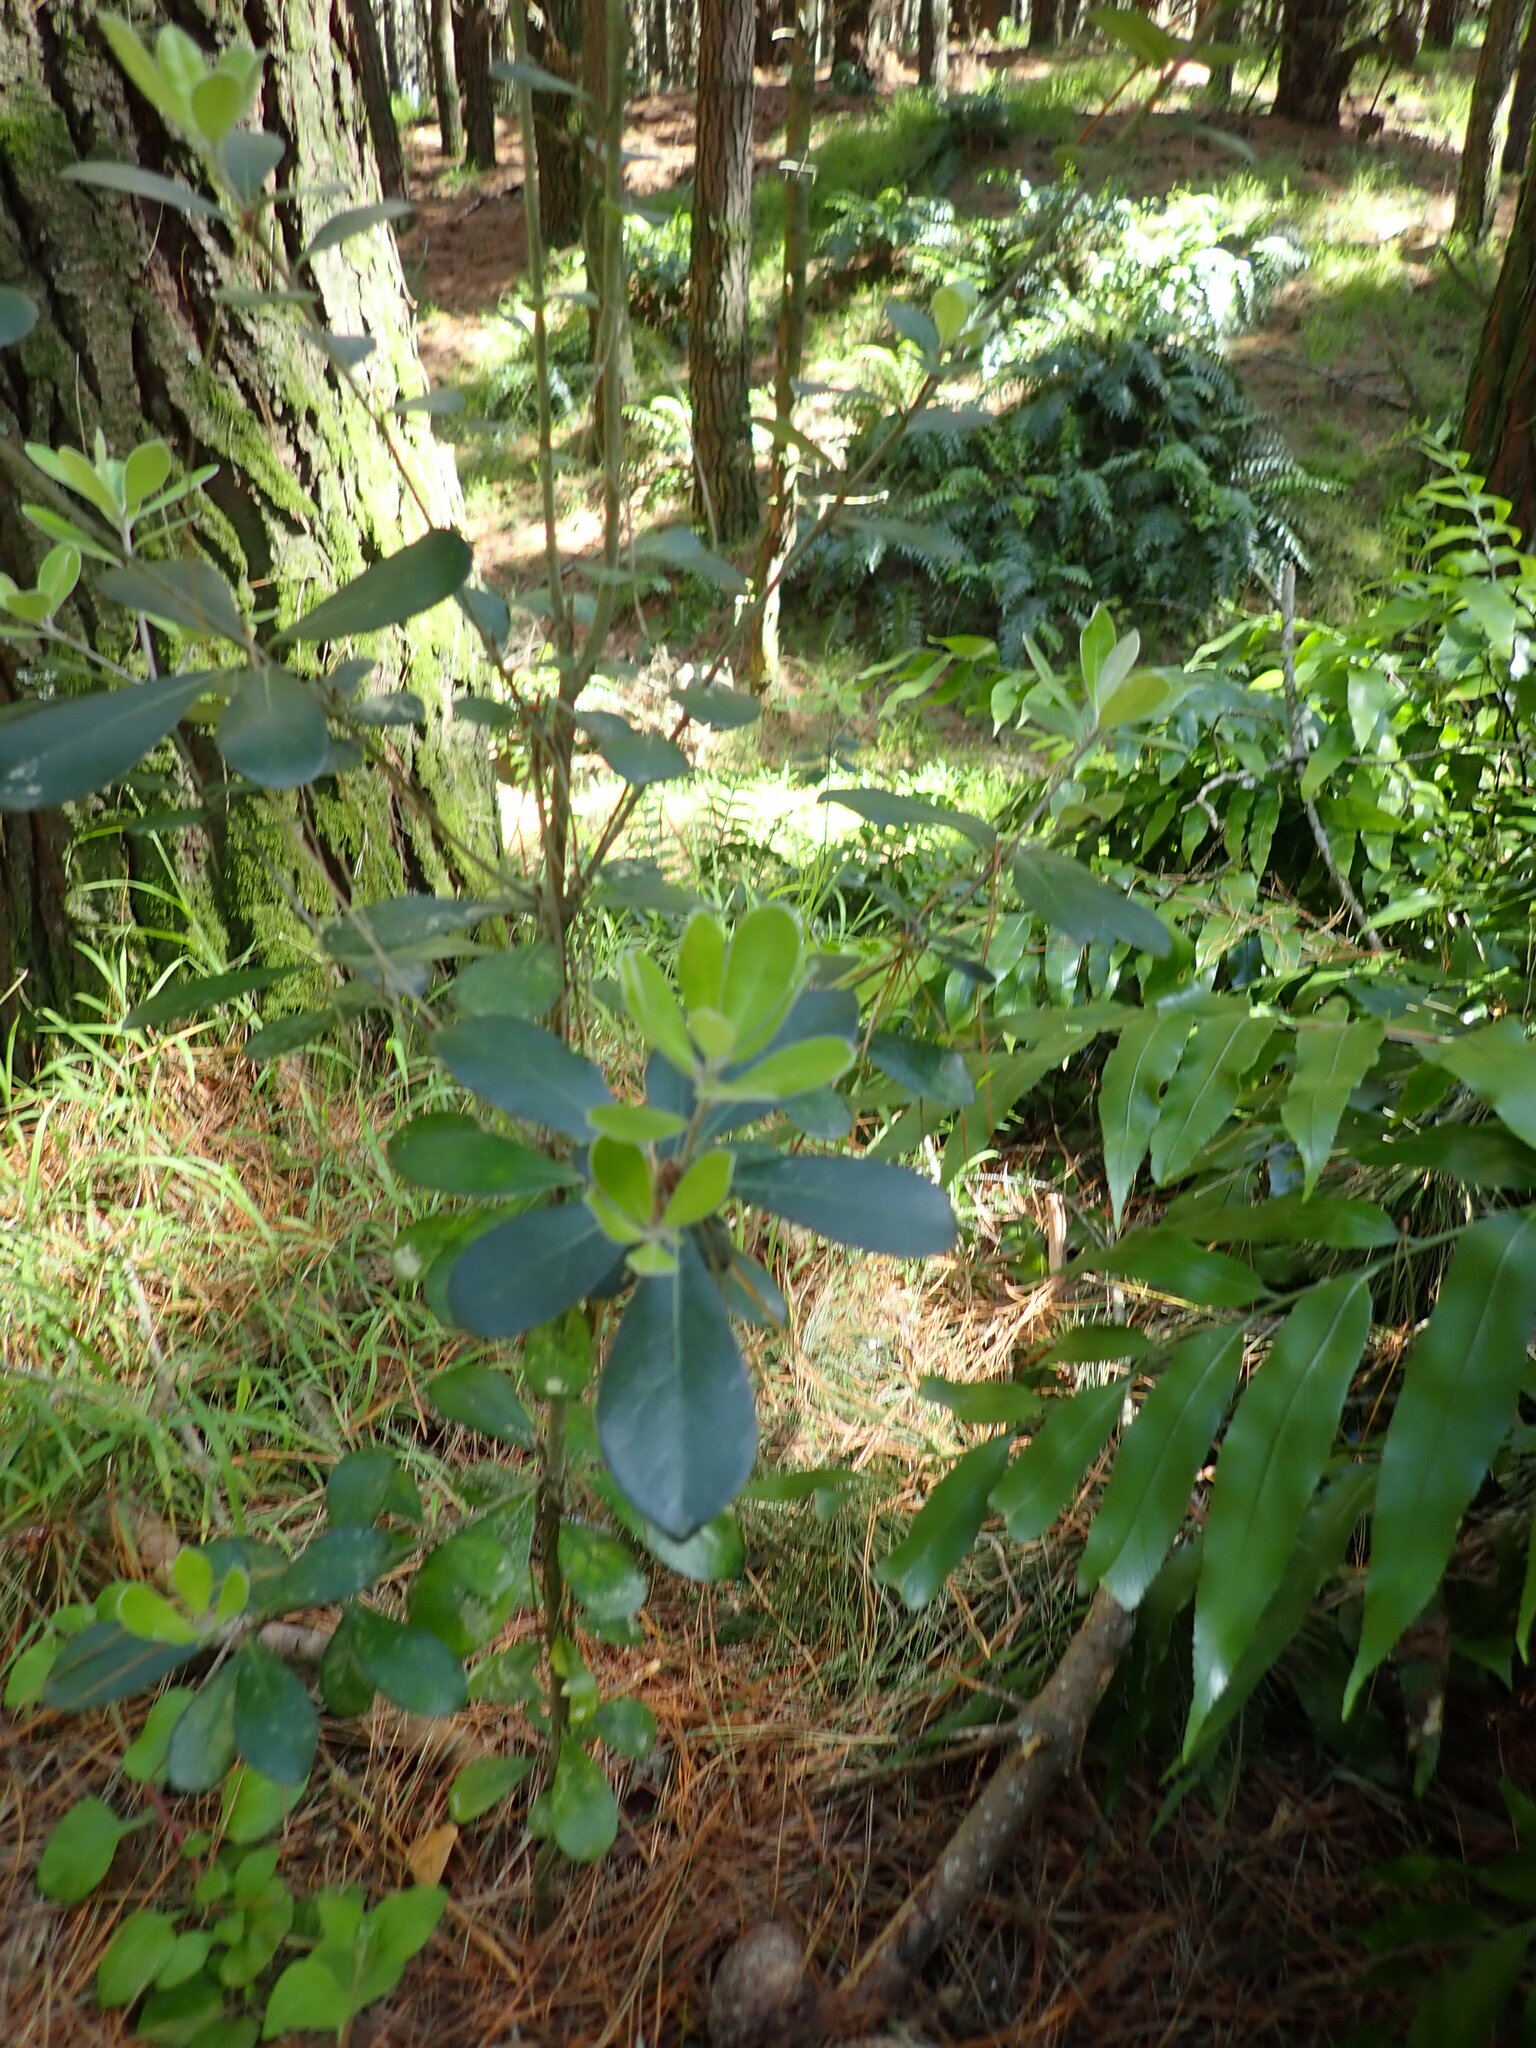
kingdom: Plantae
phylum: Tracheophyta
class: Magnoliopsida
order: Apiales
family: Pittosporaceae
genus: Pittosporum
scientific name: Pittosporum crassifolium
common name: Karo
